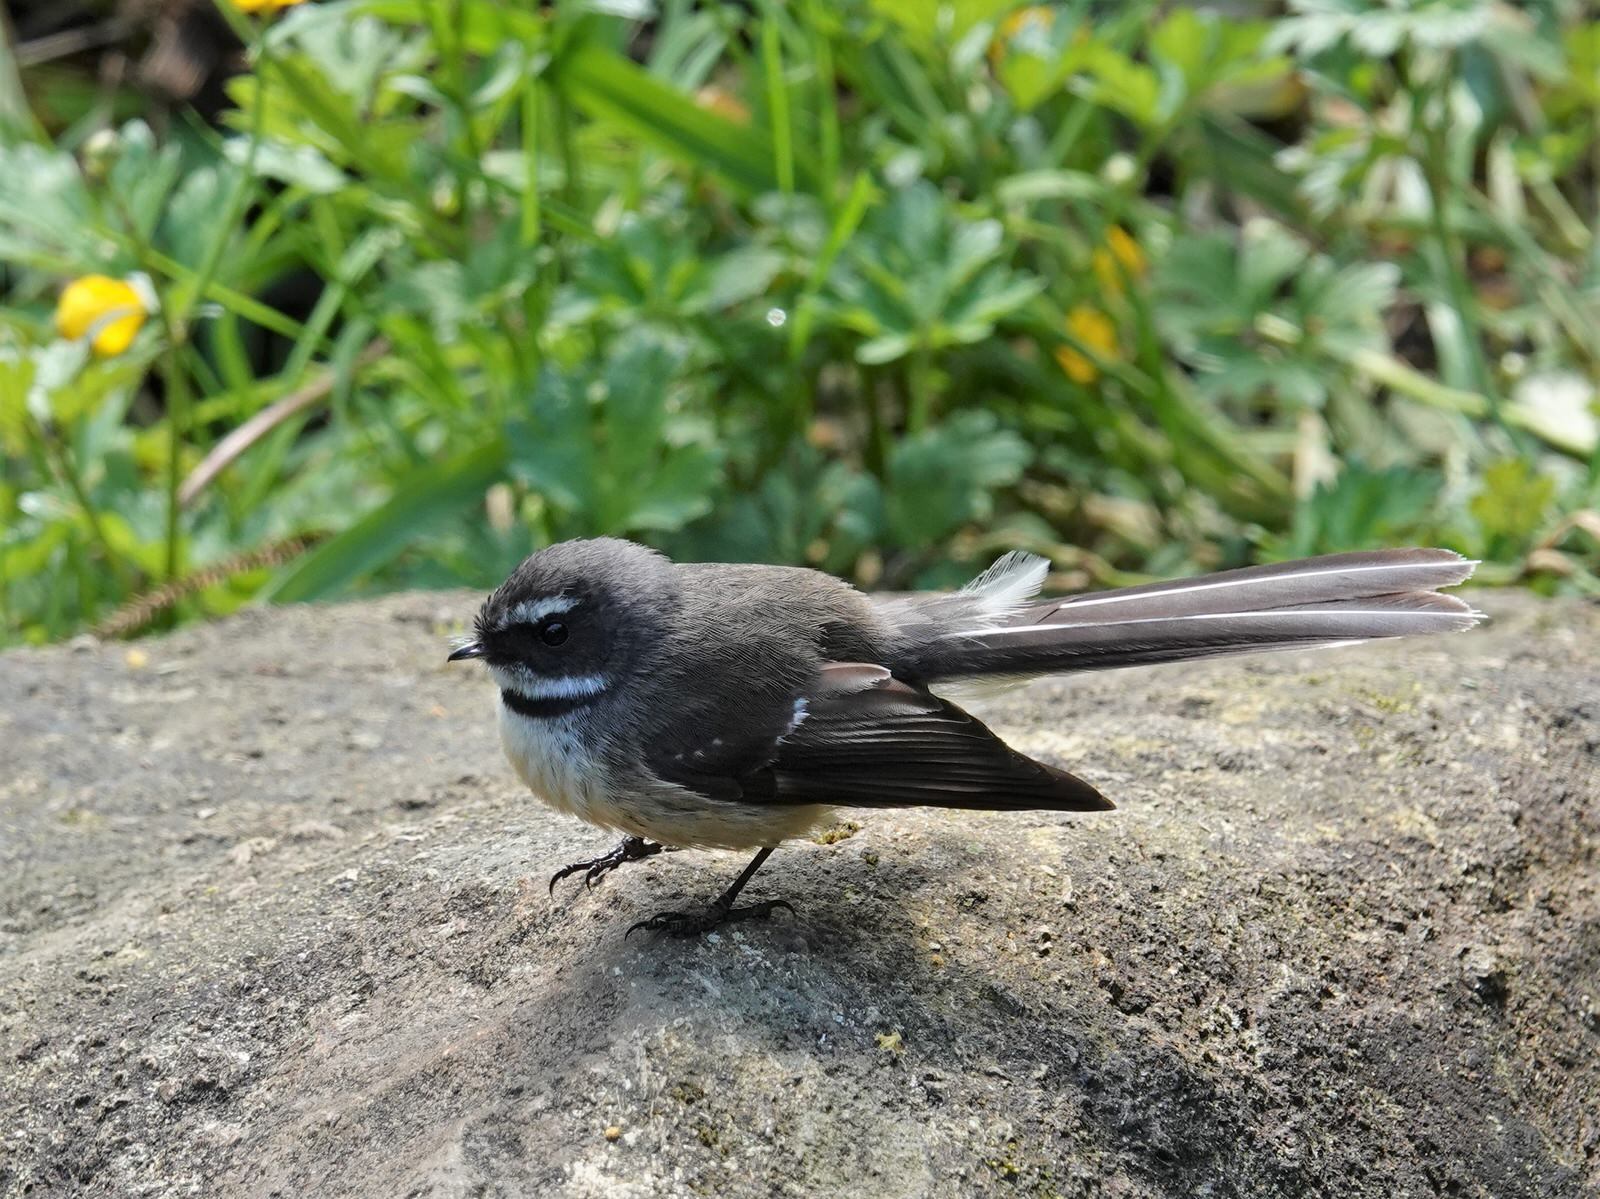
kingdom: Animalia
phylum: Chordata
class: Aves
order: Passeriformes
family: Rhipiduridae
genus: Rhipidura
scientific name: Rhipidura fuliginosa
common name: New zealand fantail
